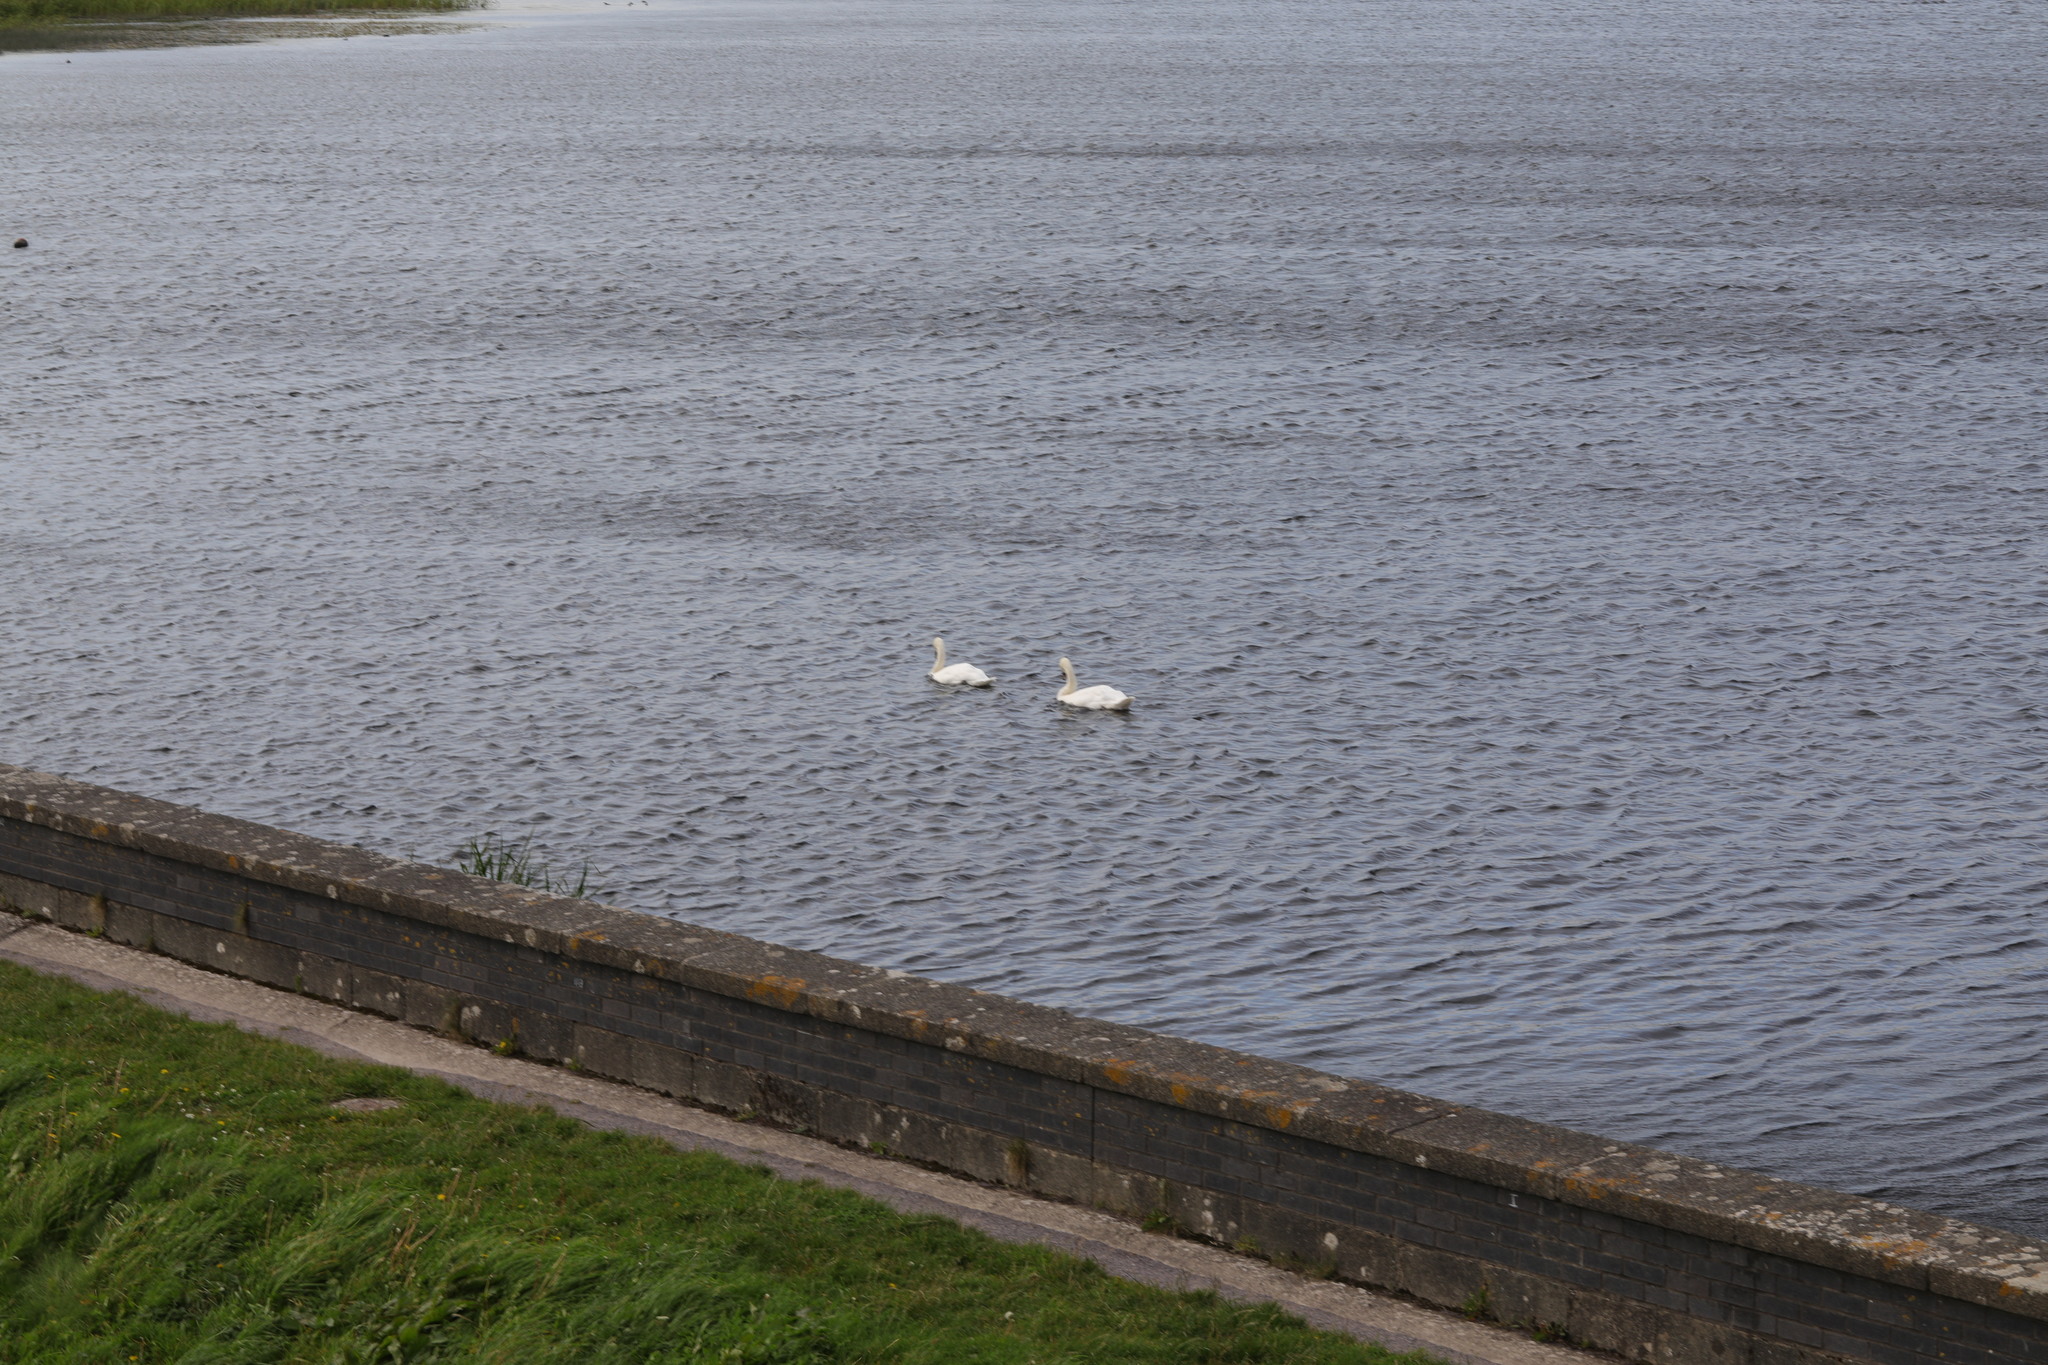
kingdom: Animalia
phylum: Chordata
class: Aves
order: Anseriformes
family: Anatidae
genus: Cygnus
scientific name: Cygnus olor
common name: Mute swan
